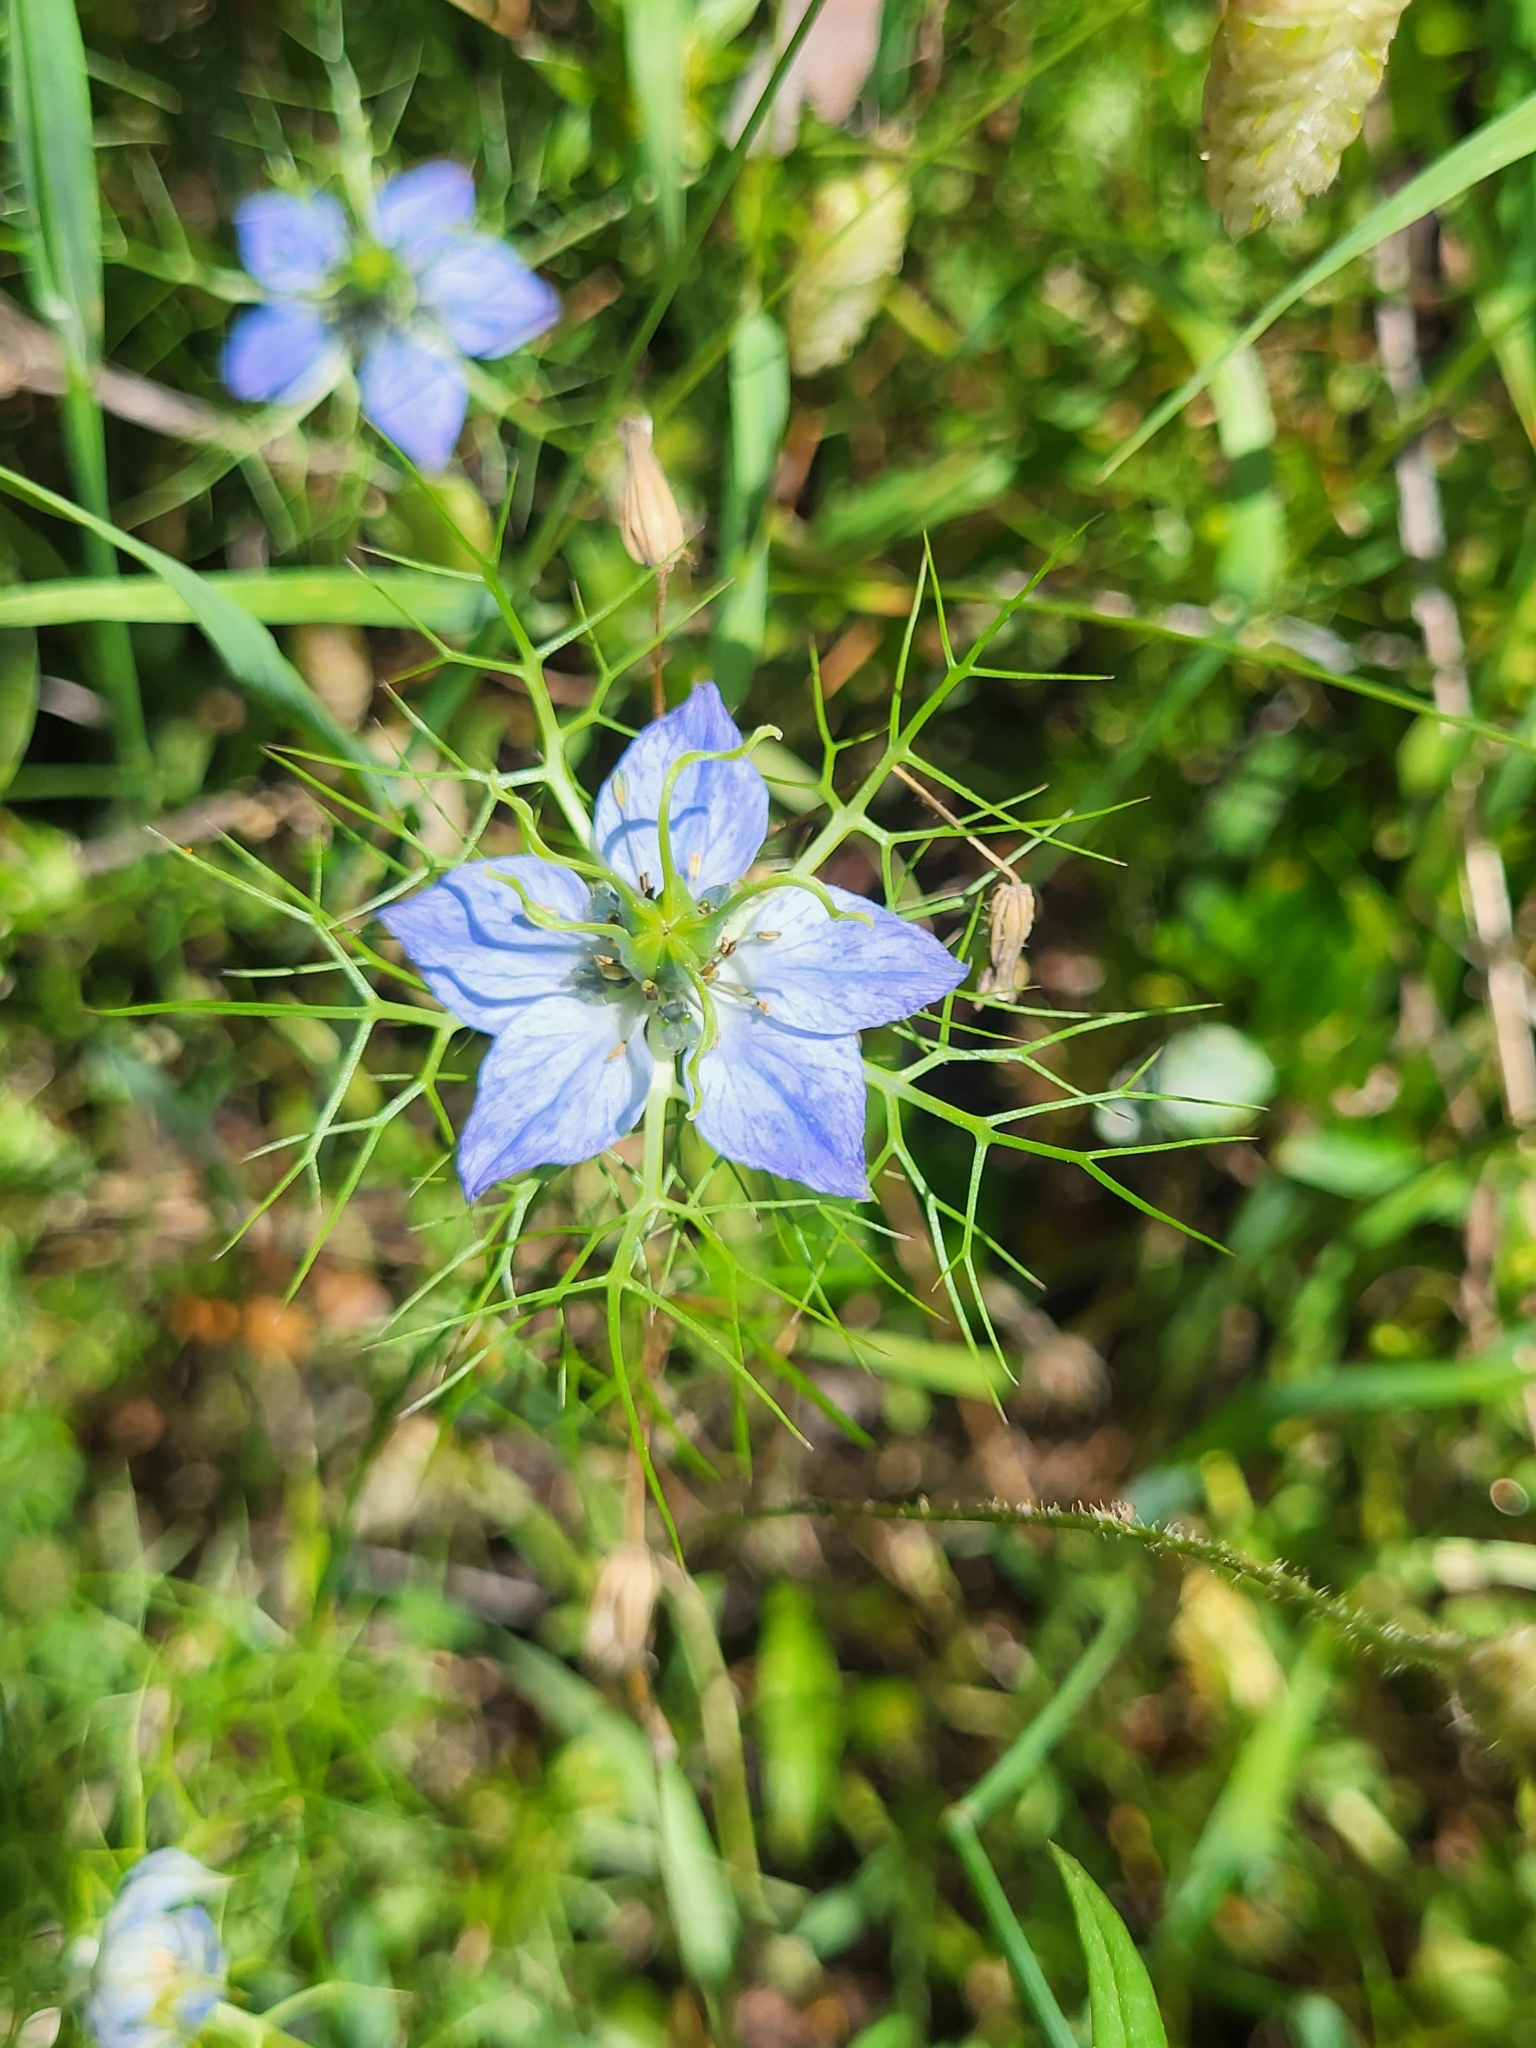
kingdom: Plantae
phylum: Tracheophyta
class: Magnoliopsida
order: Ranunculales
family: Ranunculaceae
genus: Nigella
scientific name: Nigella damascena
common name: Love-in-a-mist
